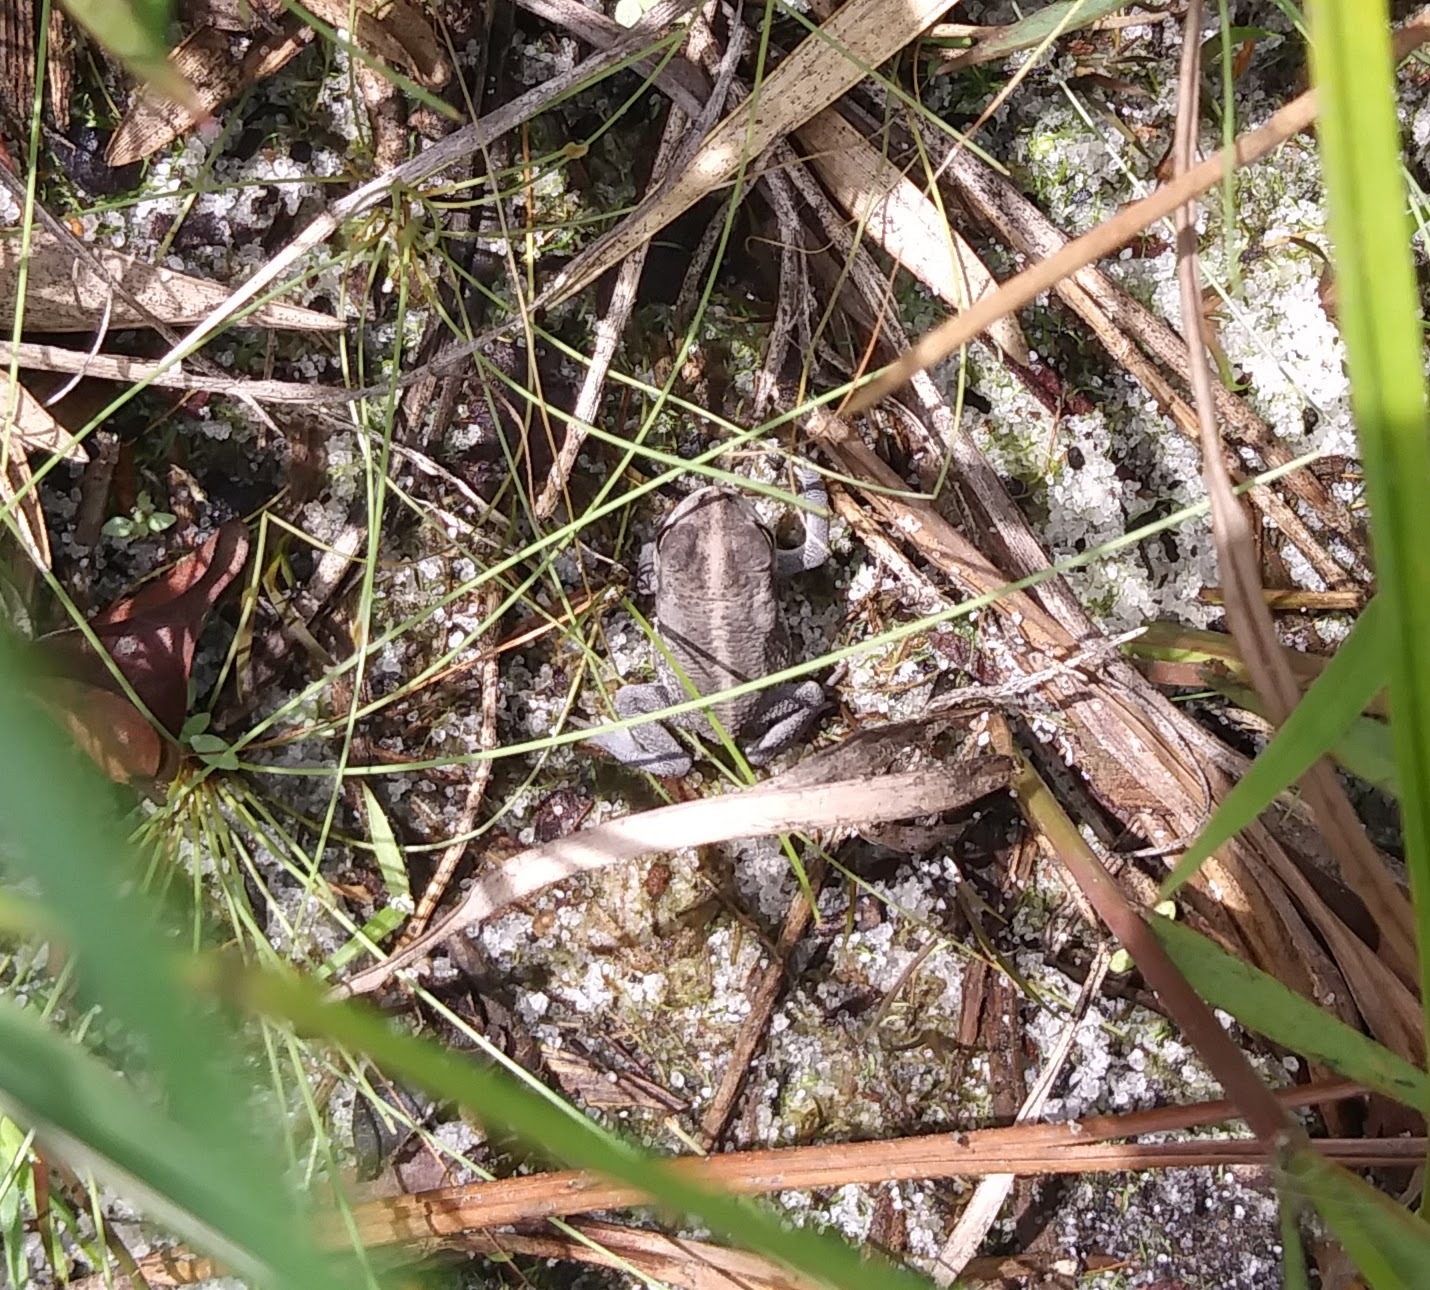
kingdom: Animalia
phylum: Chordata
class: Amphibia
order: Anura
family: Bufonidae
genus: Anaxyrus
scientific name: Anaxyrus quercicus
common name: Oak toad
